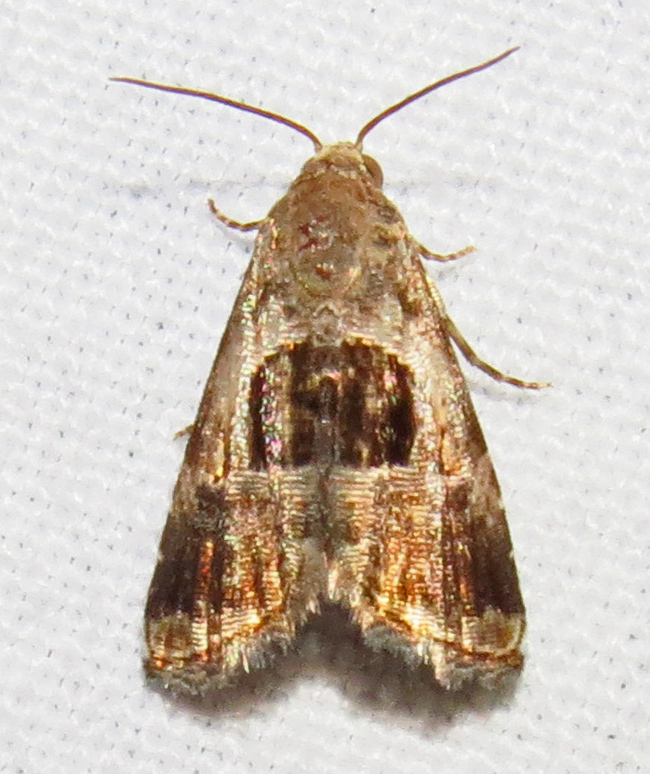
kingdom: Animalia
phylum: Arthropoda
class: Insecta
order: Lepidoptera
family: Noctuidae
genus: Tripudia
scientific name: Tripudia rectangula
